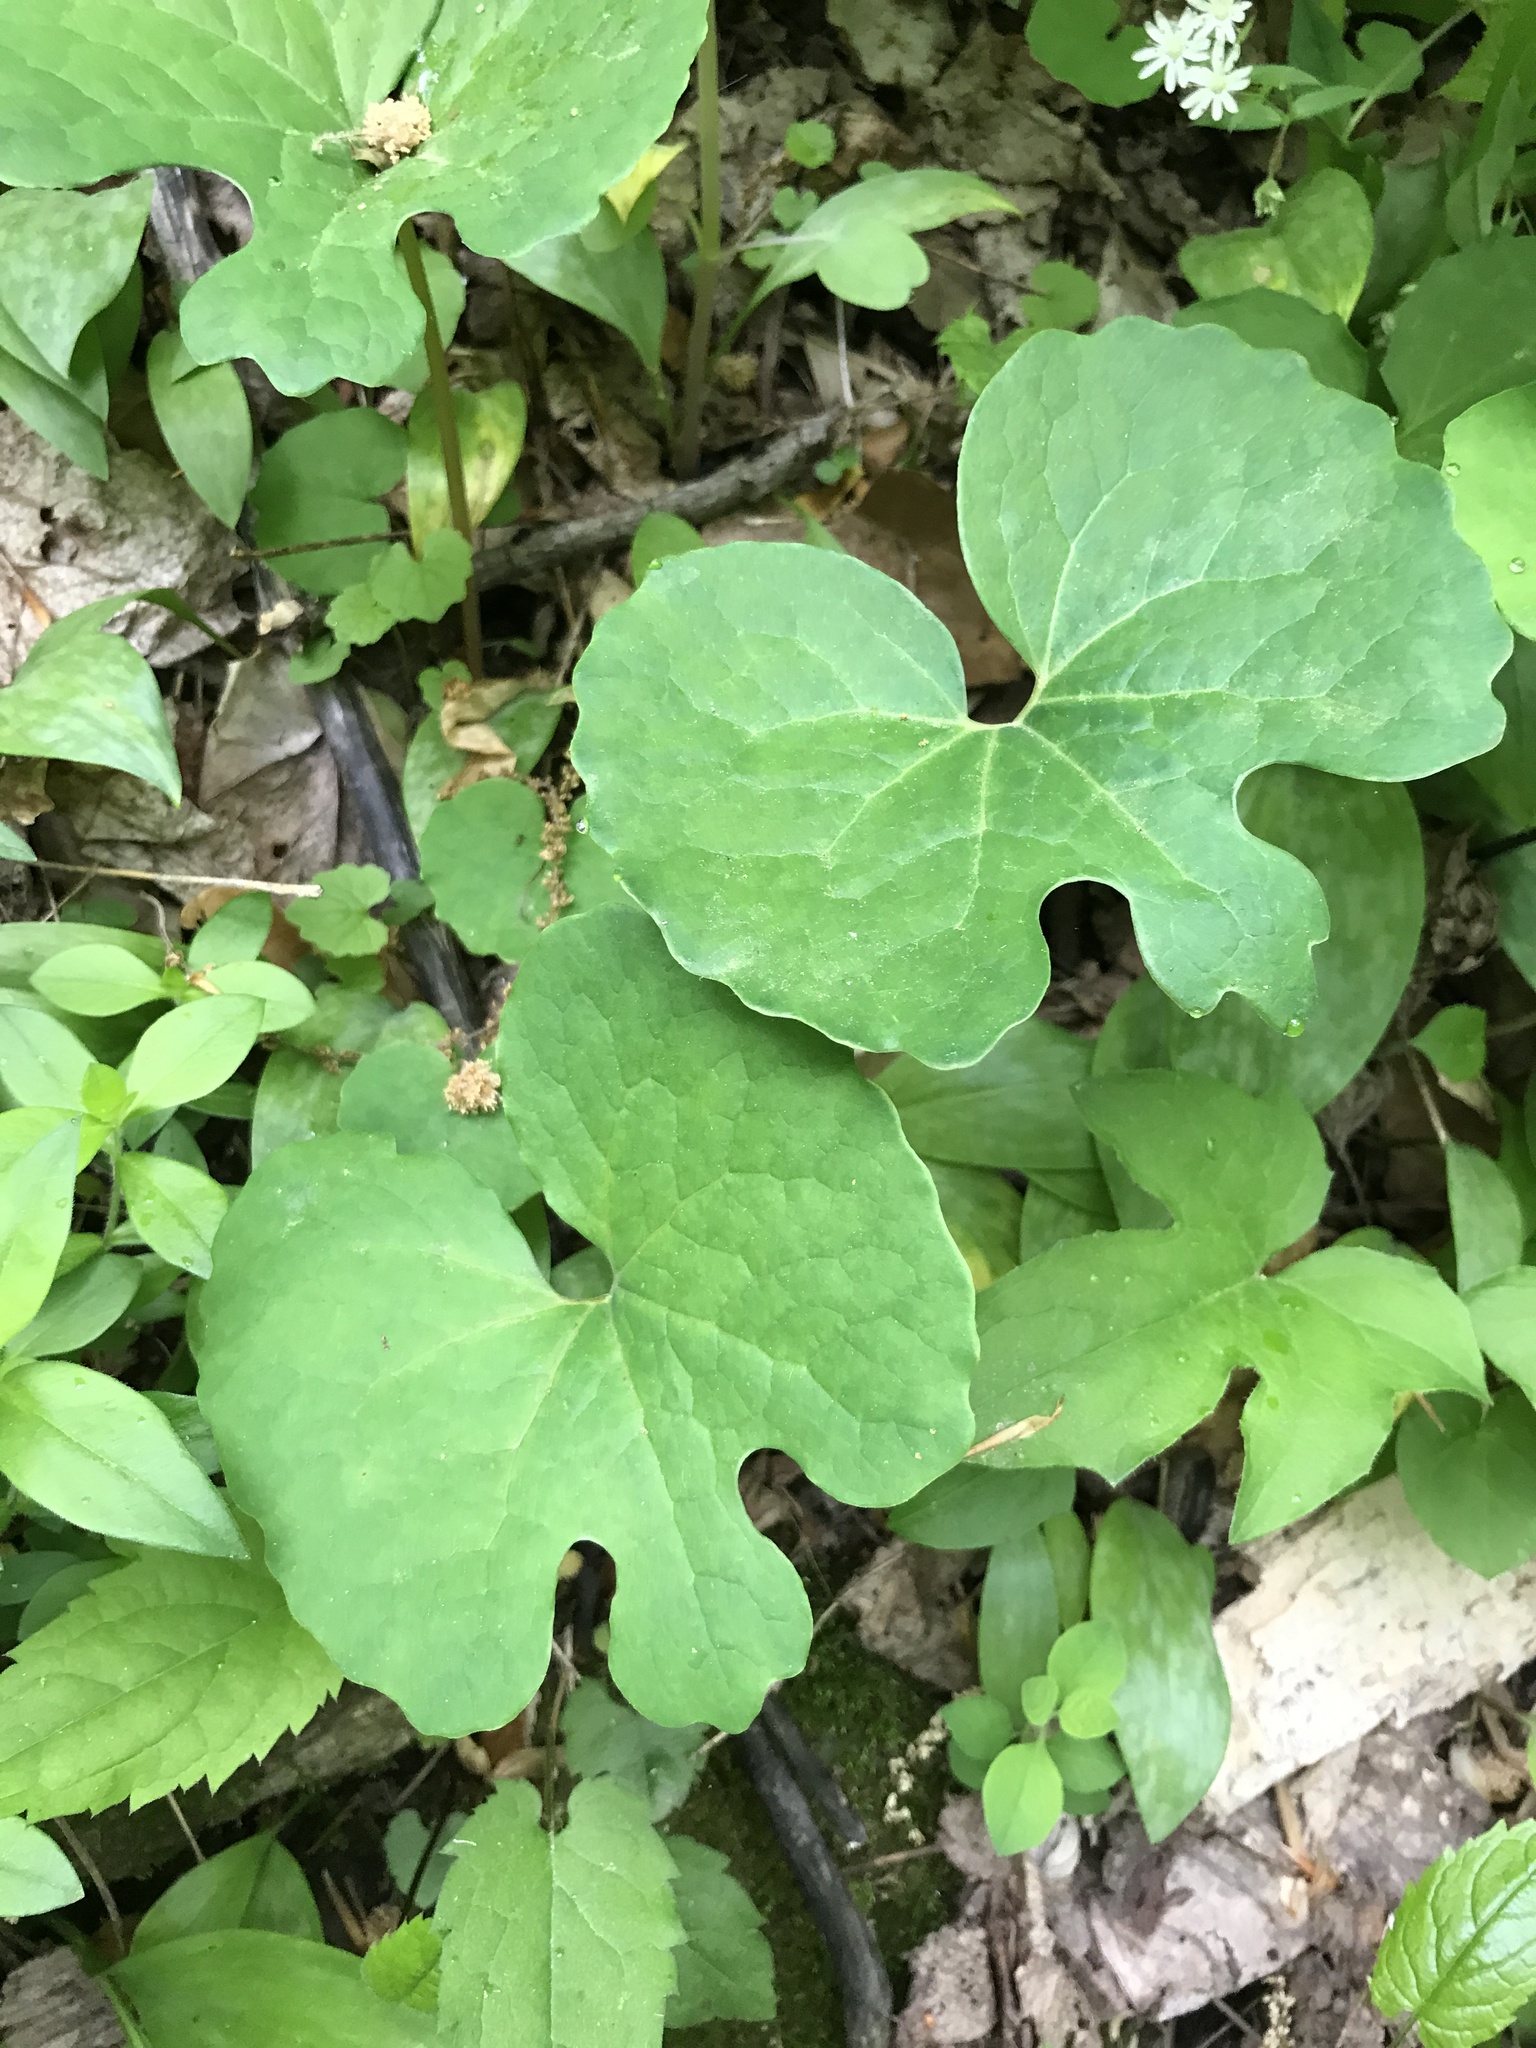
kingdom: Plantae
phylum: Tracheophyta
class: Magnoliopsida
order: Ranunculales
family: Papaveraceae
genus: Sanguinaria
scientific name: Sanguinaria canadensis
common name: Bloodroot
